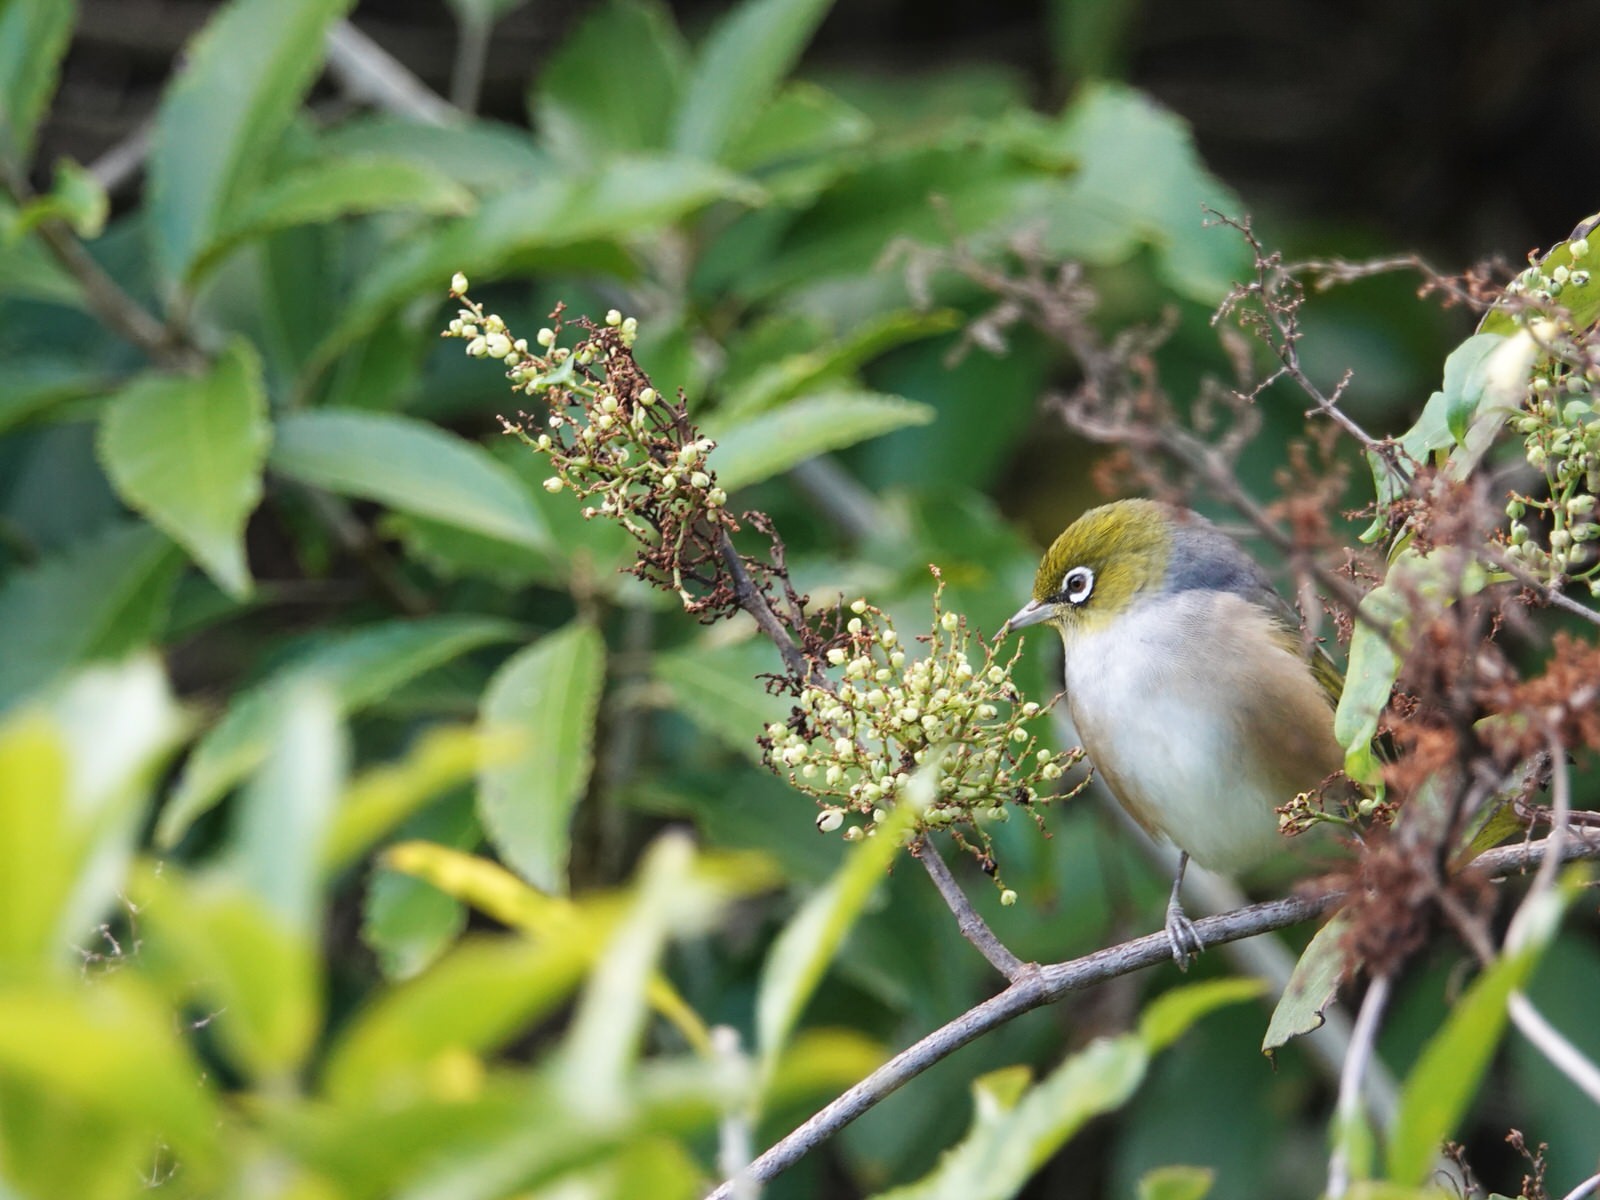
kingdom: Animalia
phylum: Chordata
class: Aves
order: Passeriformes
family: Zosteropidae
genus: Zosterops
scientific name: Zosterops lateralis
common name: Silvereye
